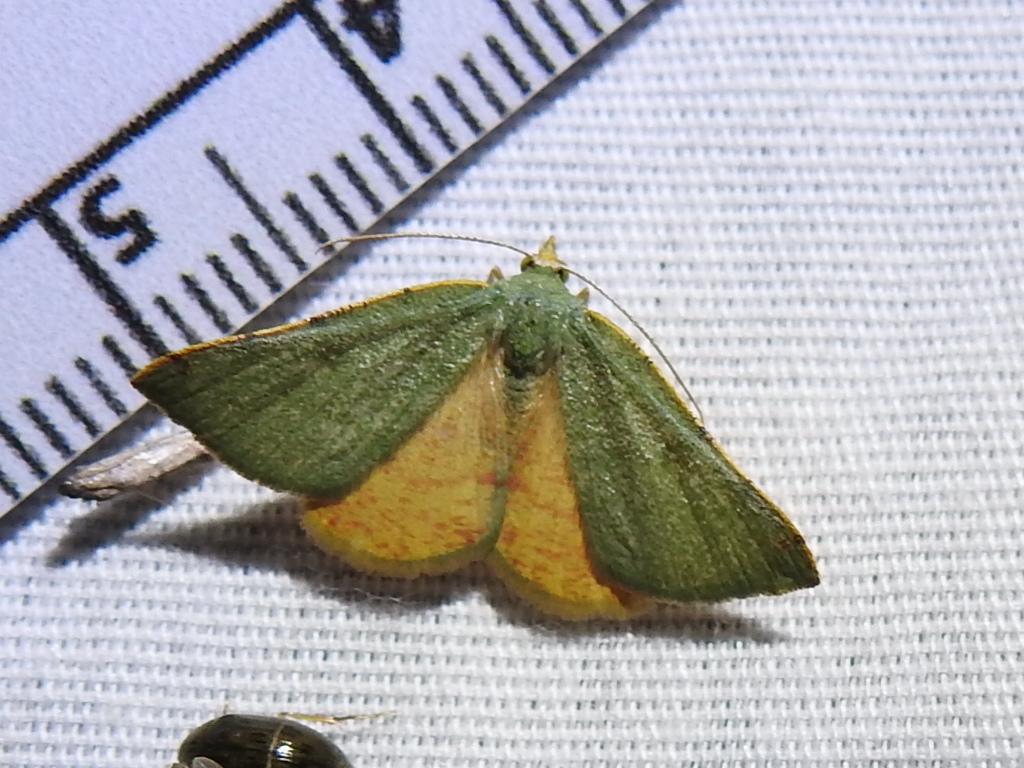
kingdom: Animalia
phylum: Arthropoda
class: Insecta
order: Lepidoptera
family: Geometridae
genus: Chloraspilates
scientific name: Chloraspilates bicoloraria
